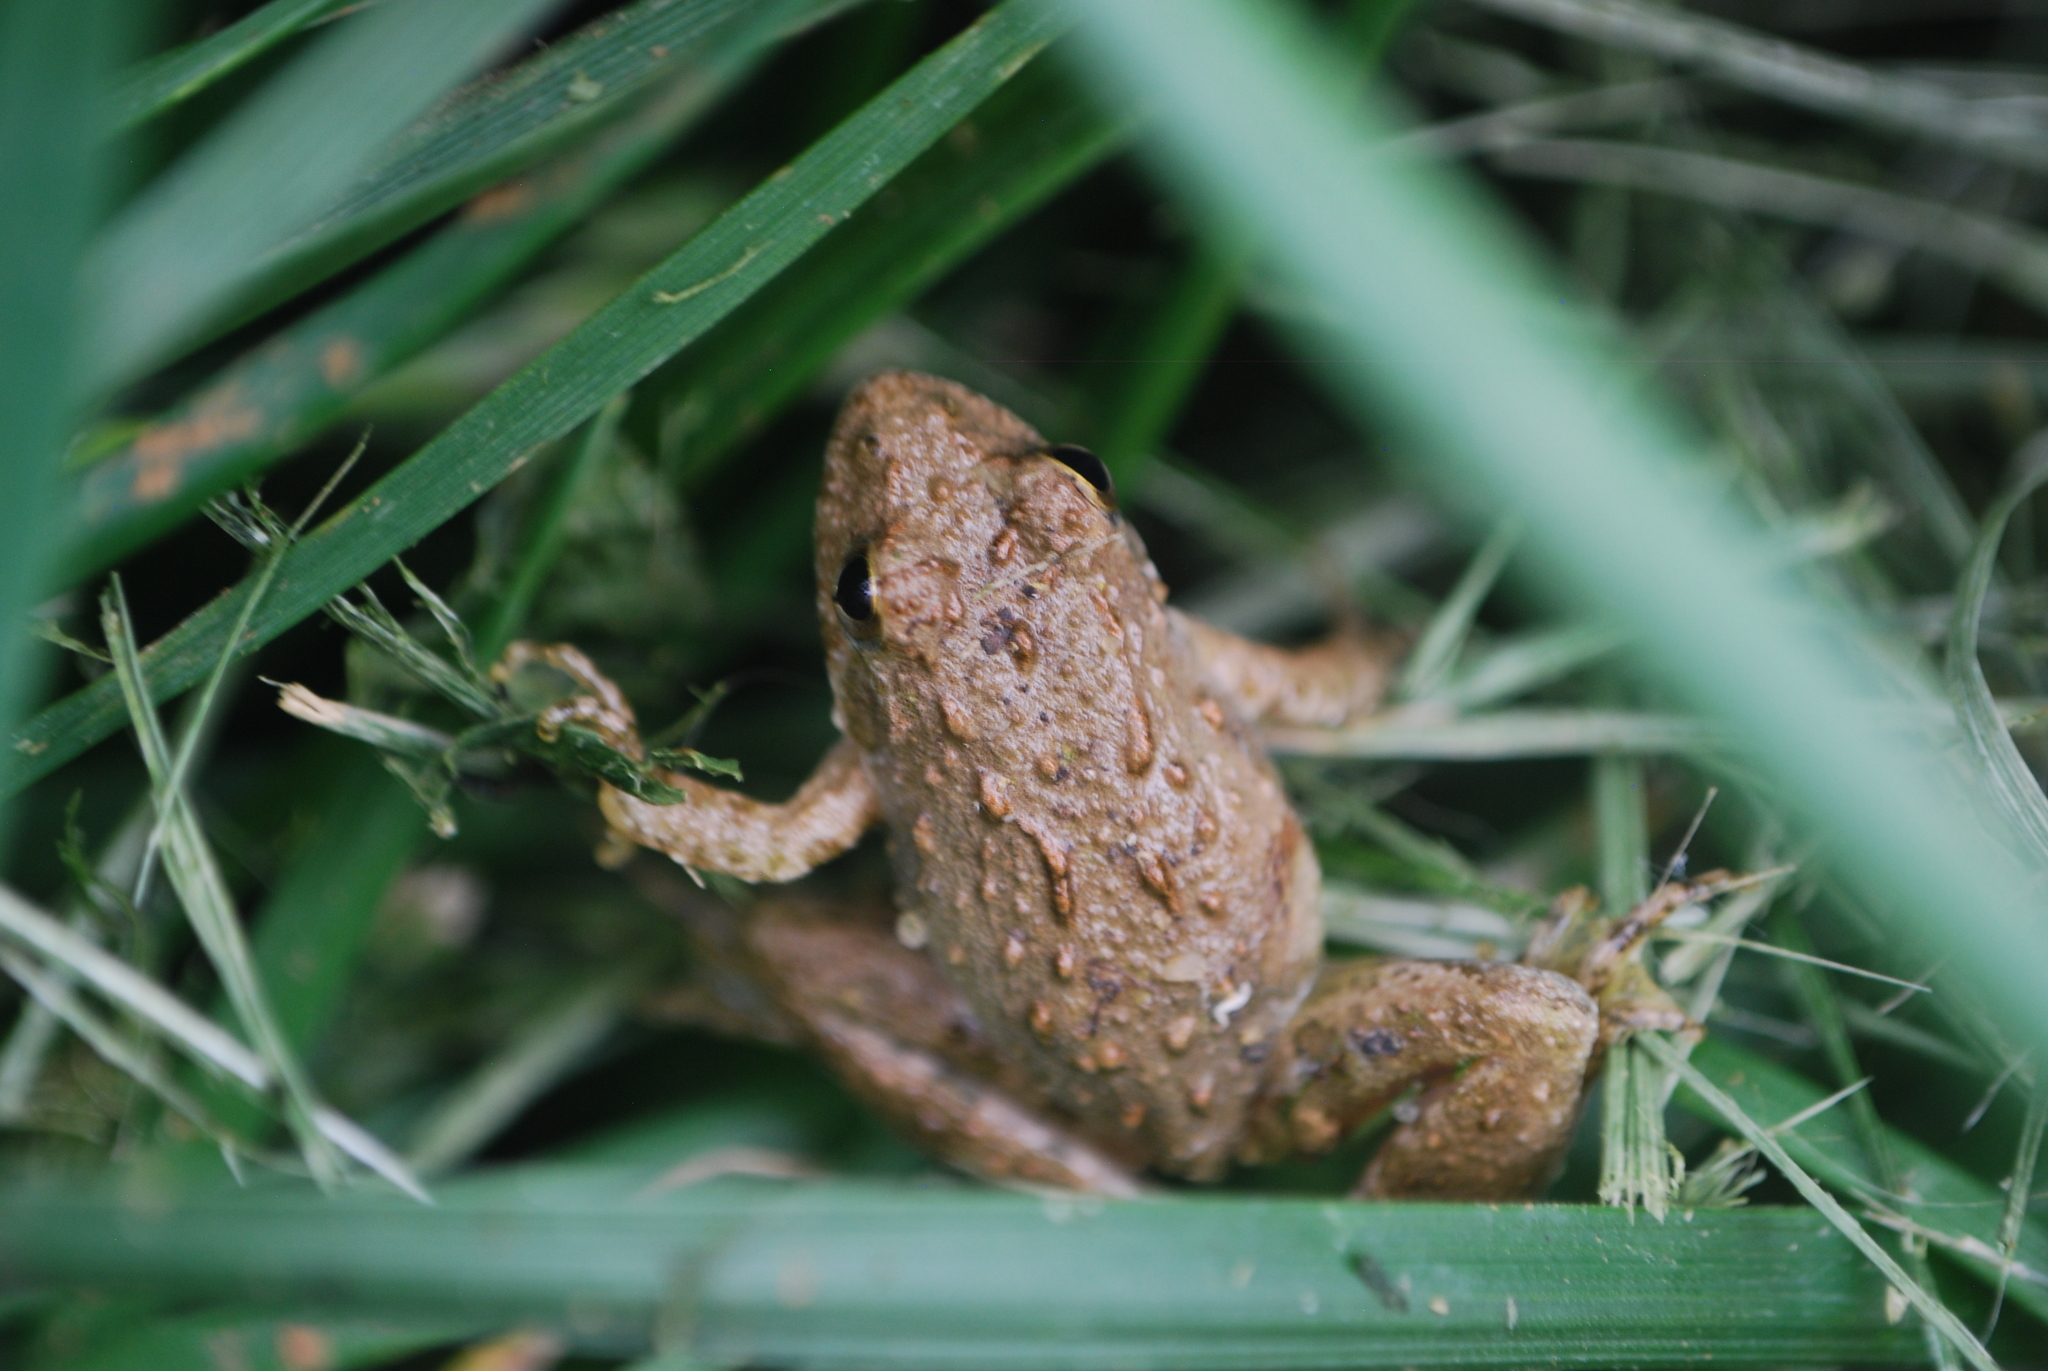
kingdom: Animalia
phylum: Chordata
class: Amphibia
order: Anura
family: Hylidae
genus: Acris
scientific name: Acris blanchardi
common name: Blanchard's cricket frog
